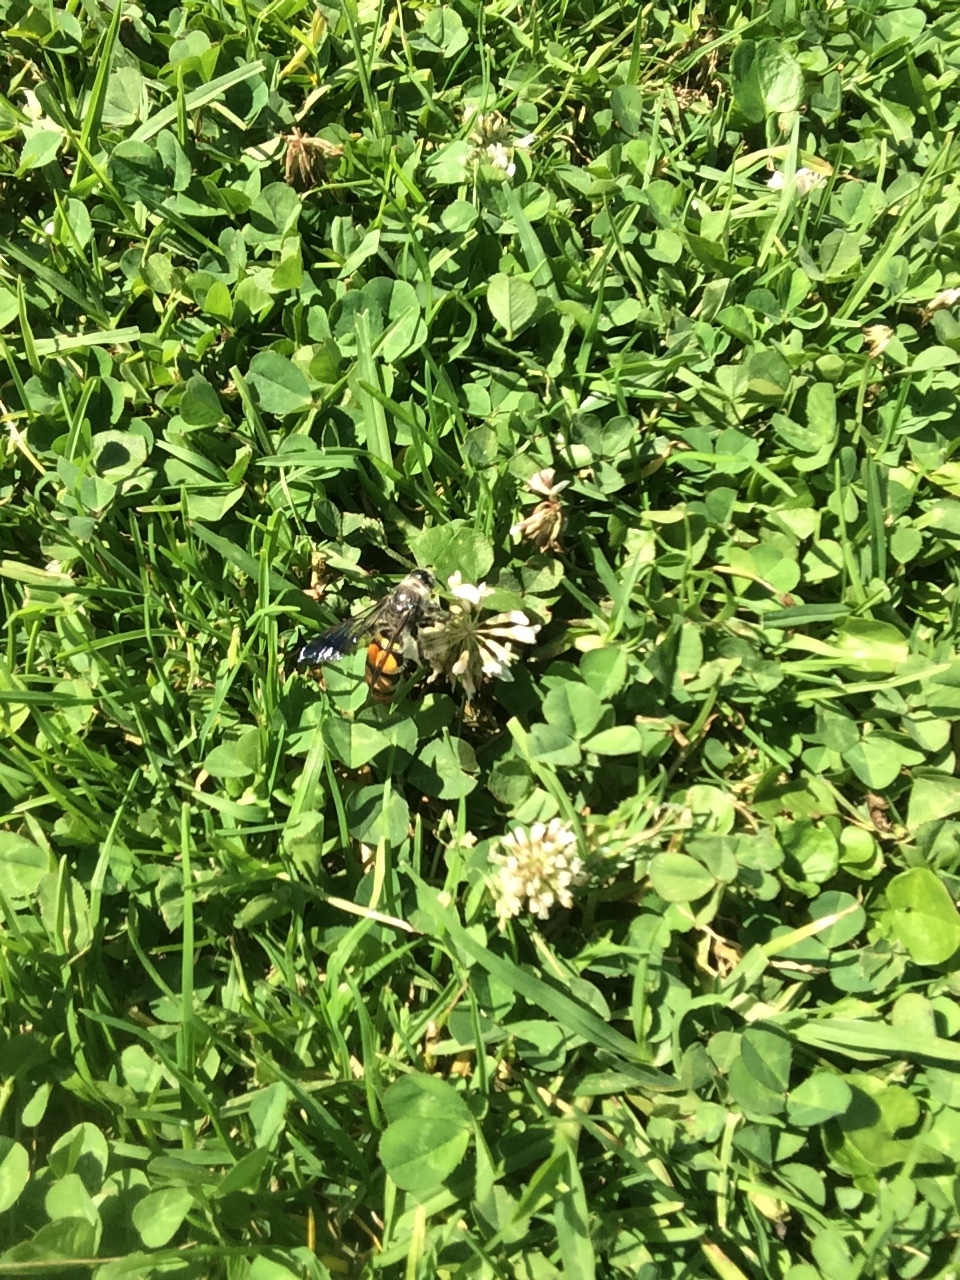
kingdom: Animalia
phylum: Arthropoda
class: Insecta
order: Hymenoptera
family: Scoliidae
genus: Dielis
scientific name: Dielis tolteca
